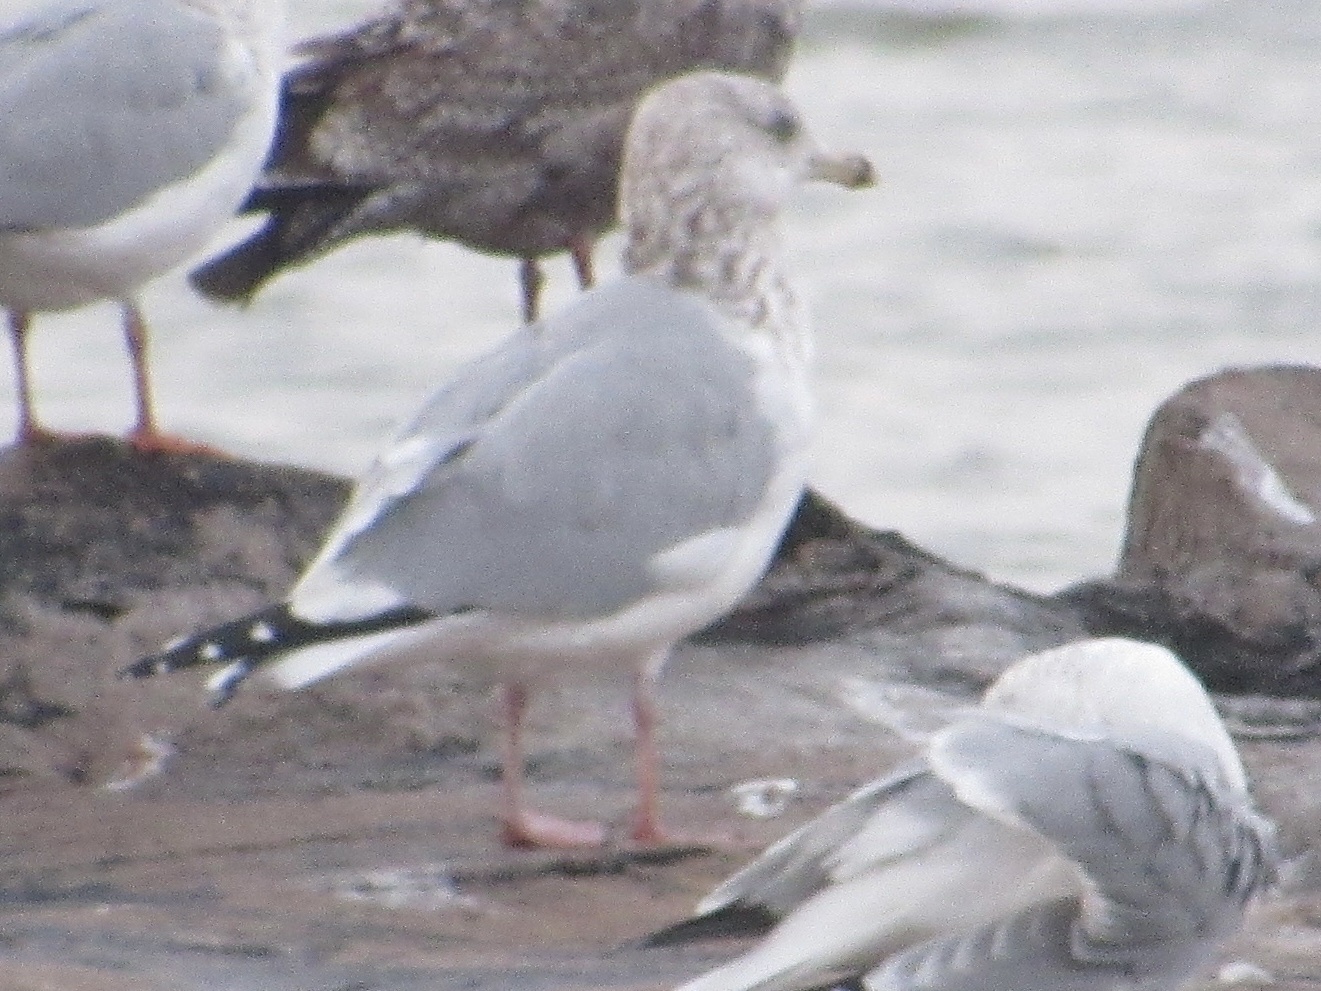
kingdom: Animalia
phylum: Chordata
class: Aves
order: Charadriiformes
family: Laridae
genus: Larus
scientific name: Larus argentatus
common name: Herring gull
